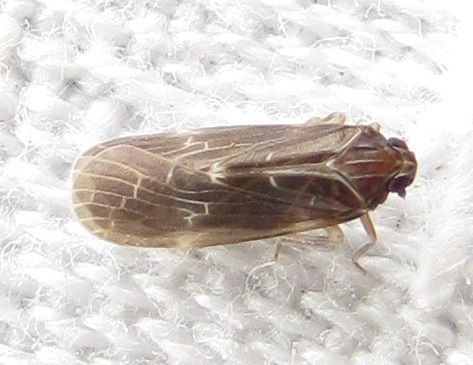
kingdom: Animalia
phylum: Arthropoda
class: Insecta
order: Hemiptera
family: Achilidae
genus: Synecdoche
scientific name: Synecdoche dimidiata
